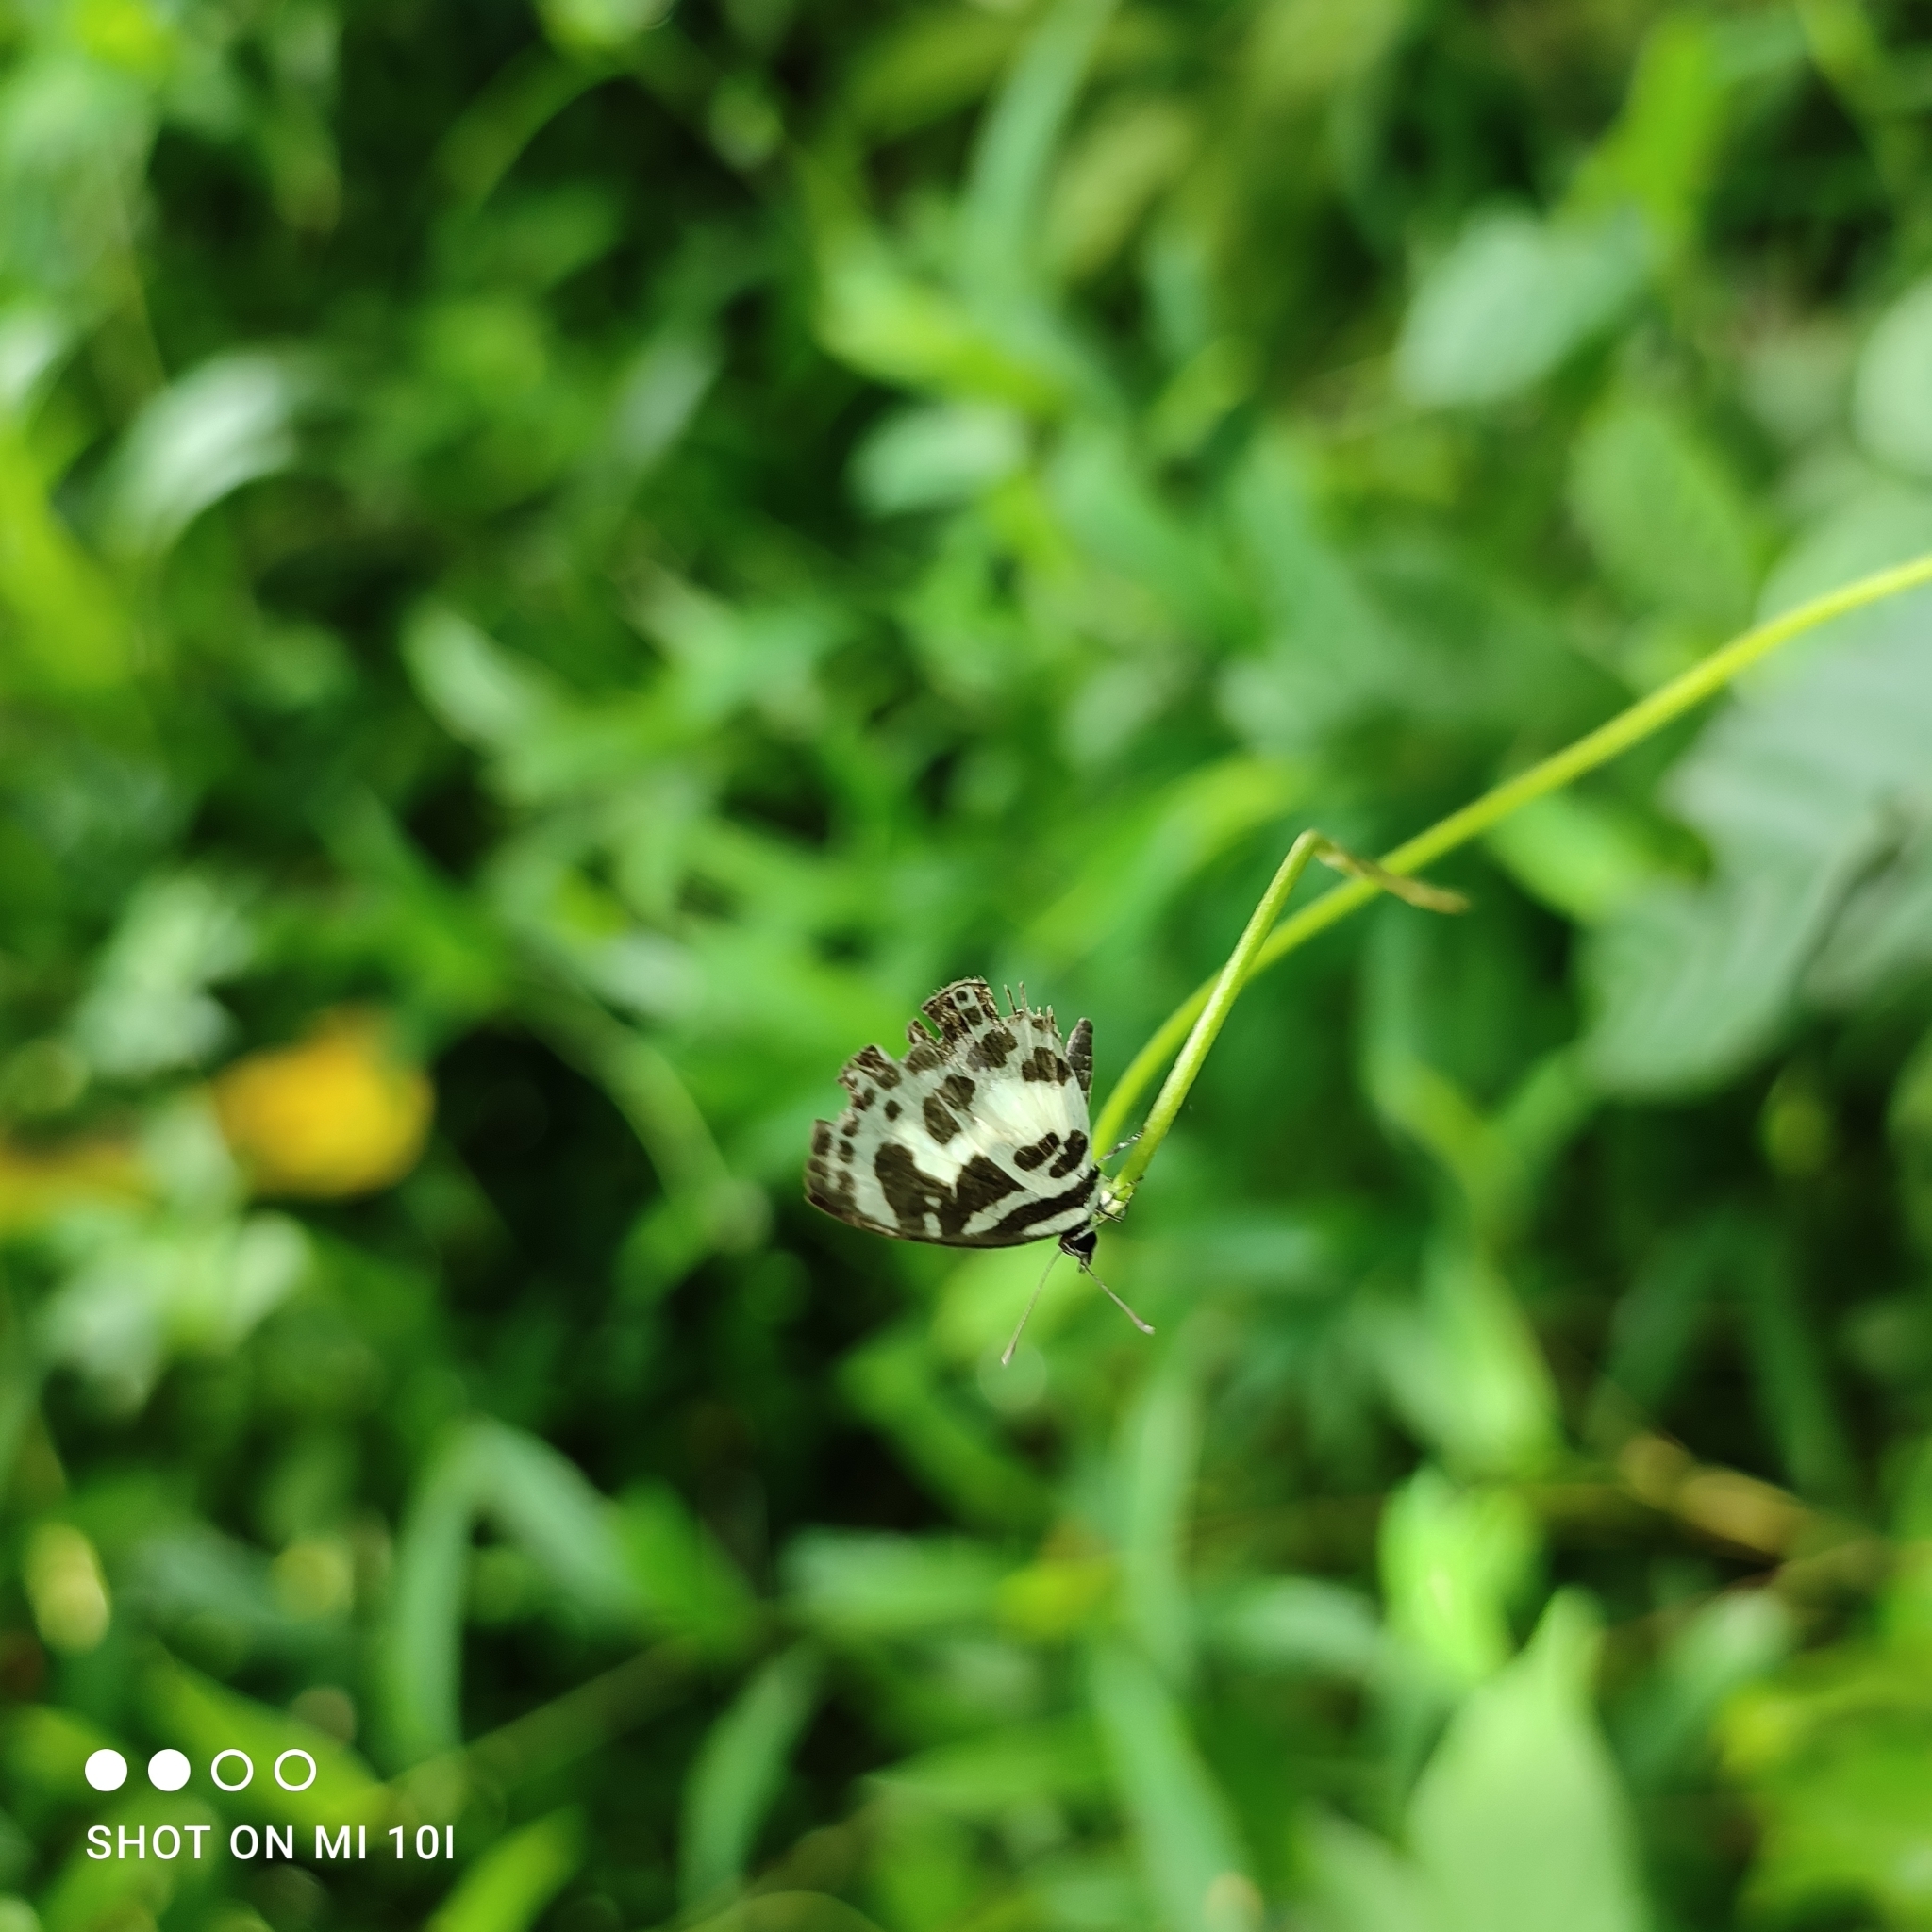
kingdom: Animalia
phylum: Arthropoda
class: Insecta
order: Lepidoptera
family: Lycaenidae
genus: Discolampa
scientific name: Discolampa ethion
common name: Banded blue pierrot
